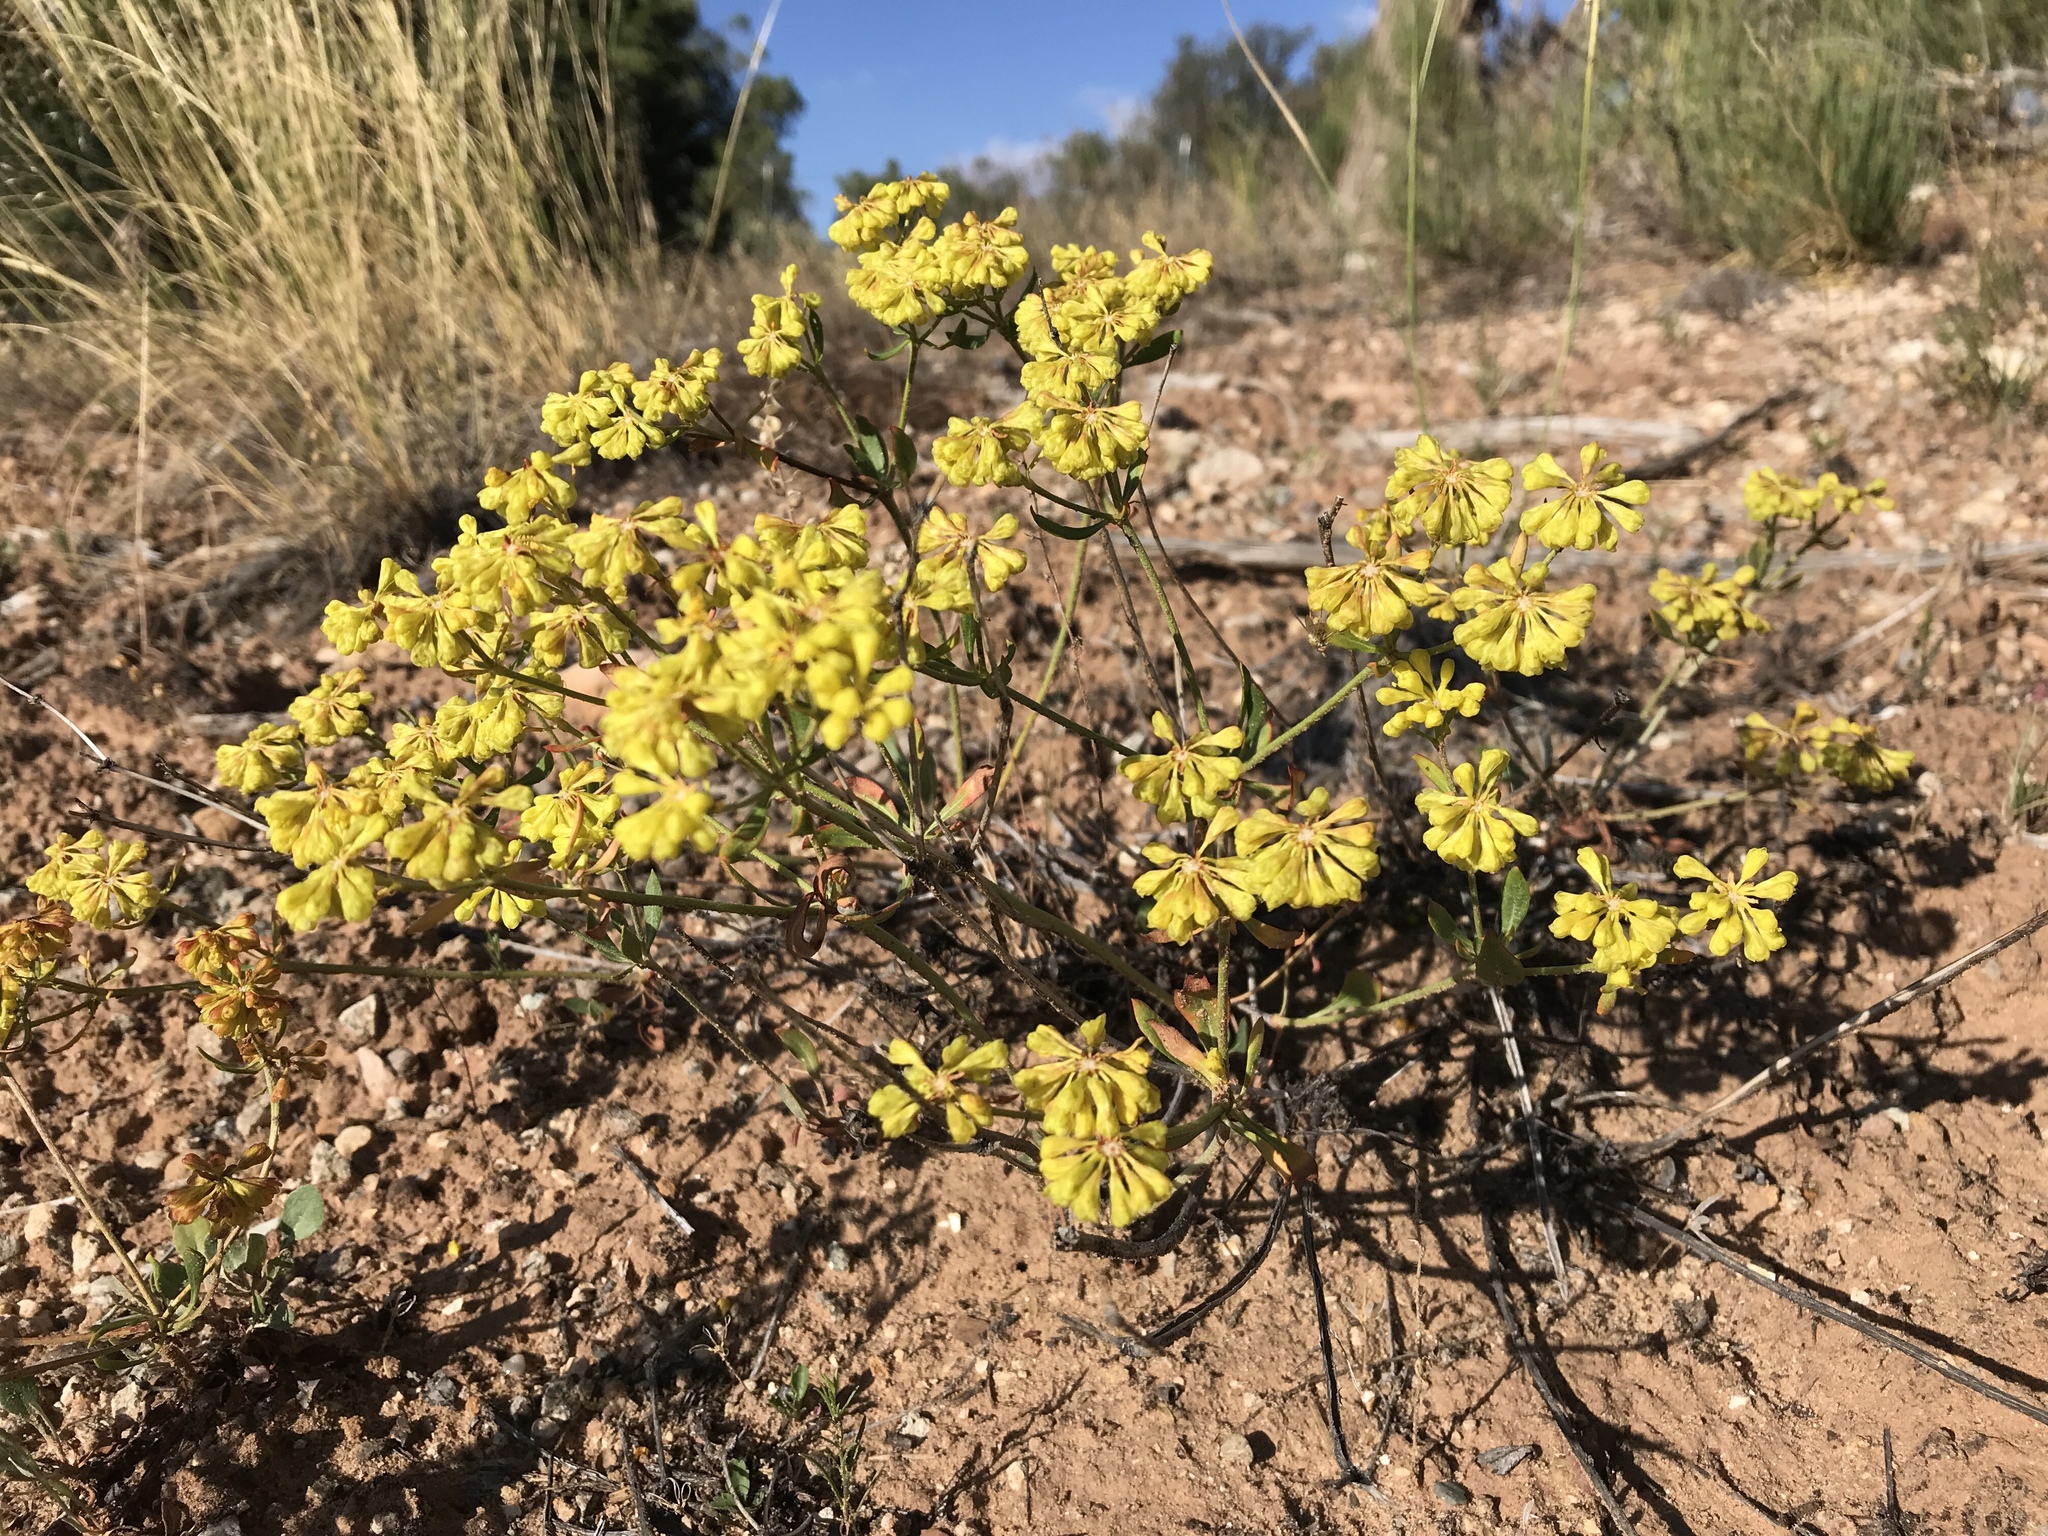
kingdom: Plantae
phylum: Tracheophyta
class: Magnoliopsida
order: Caryophyllales
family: Polygonaceae
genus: Eriogonum
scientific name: Eriogonum umbellatum
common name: Sulfur-buckwheat
